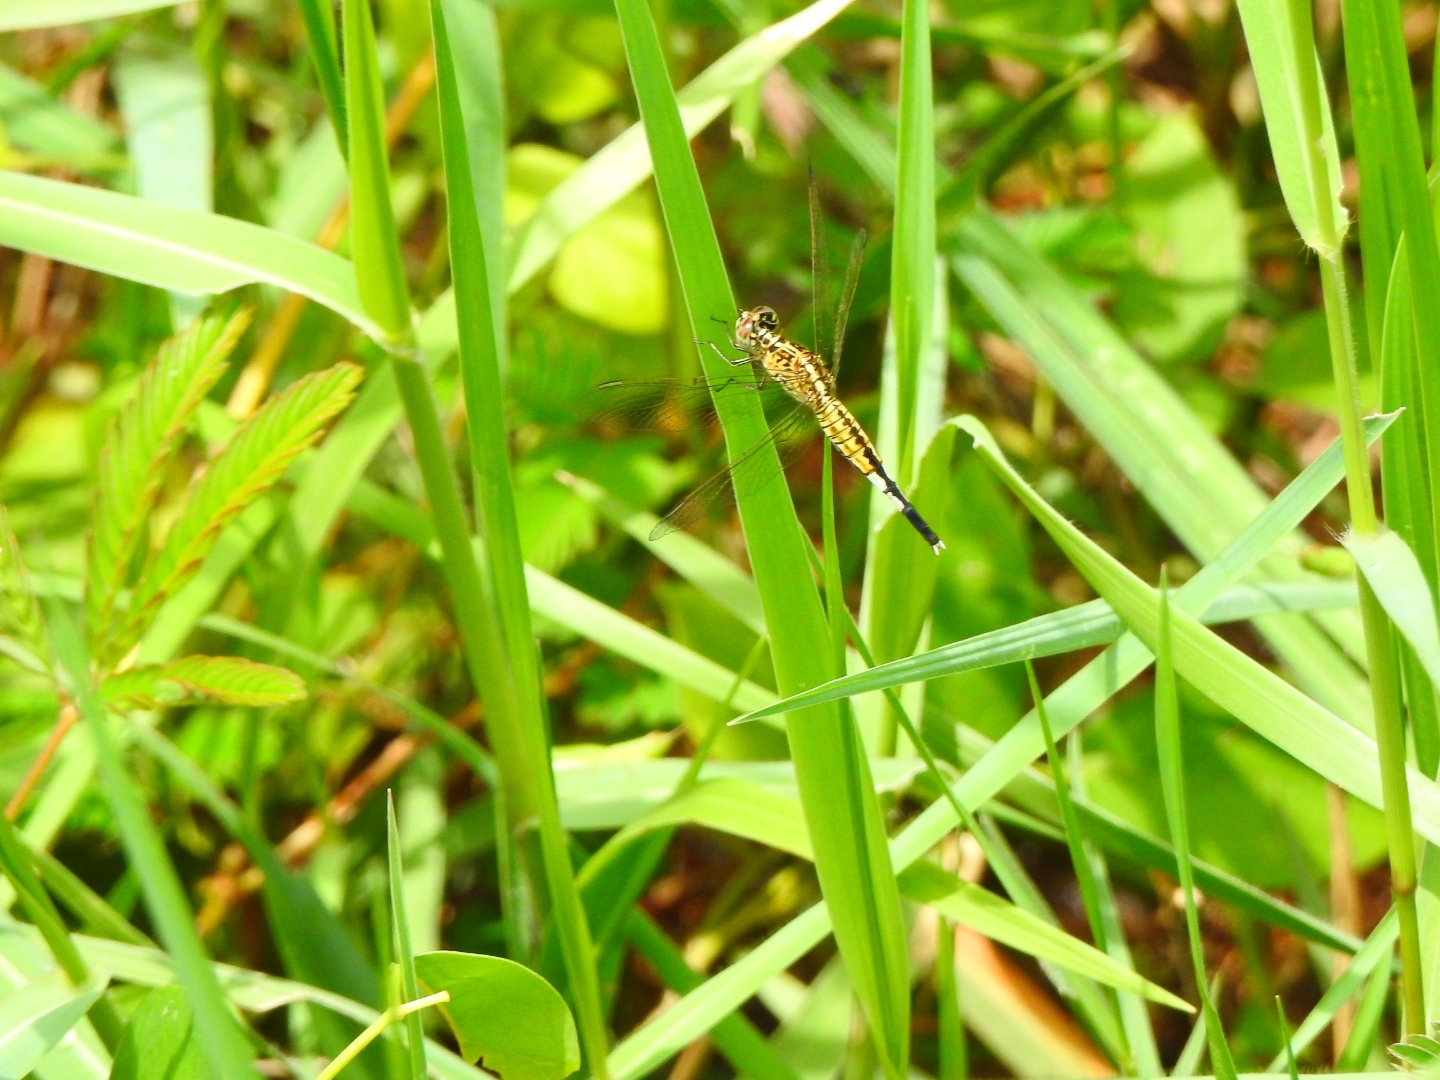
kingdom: Animalia
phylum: Arthropoda
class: Insecta
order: Odonata
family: Libellulidae
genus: Acisoma
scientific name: Acisoma panorpoides
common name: Asian pintail
